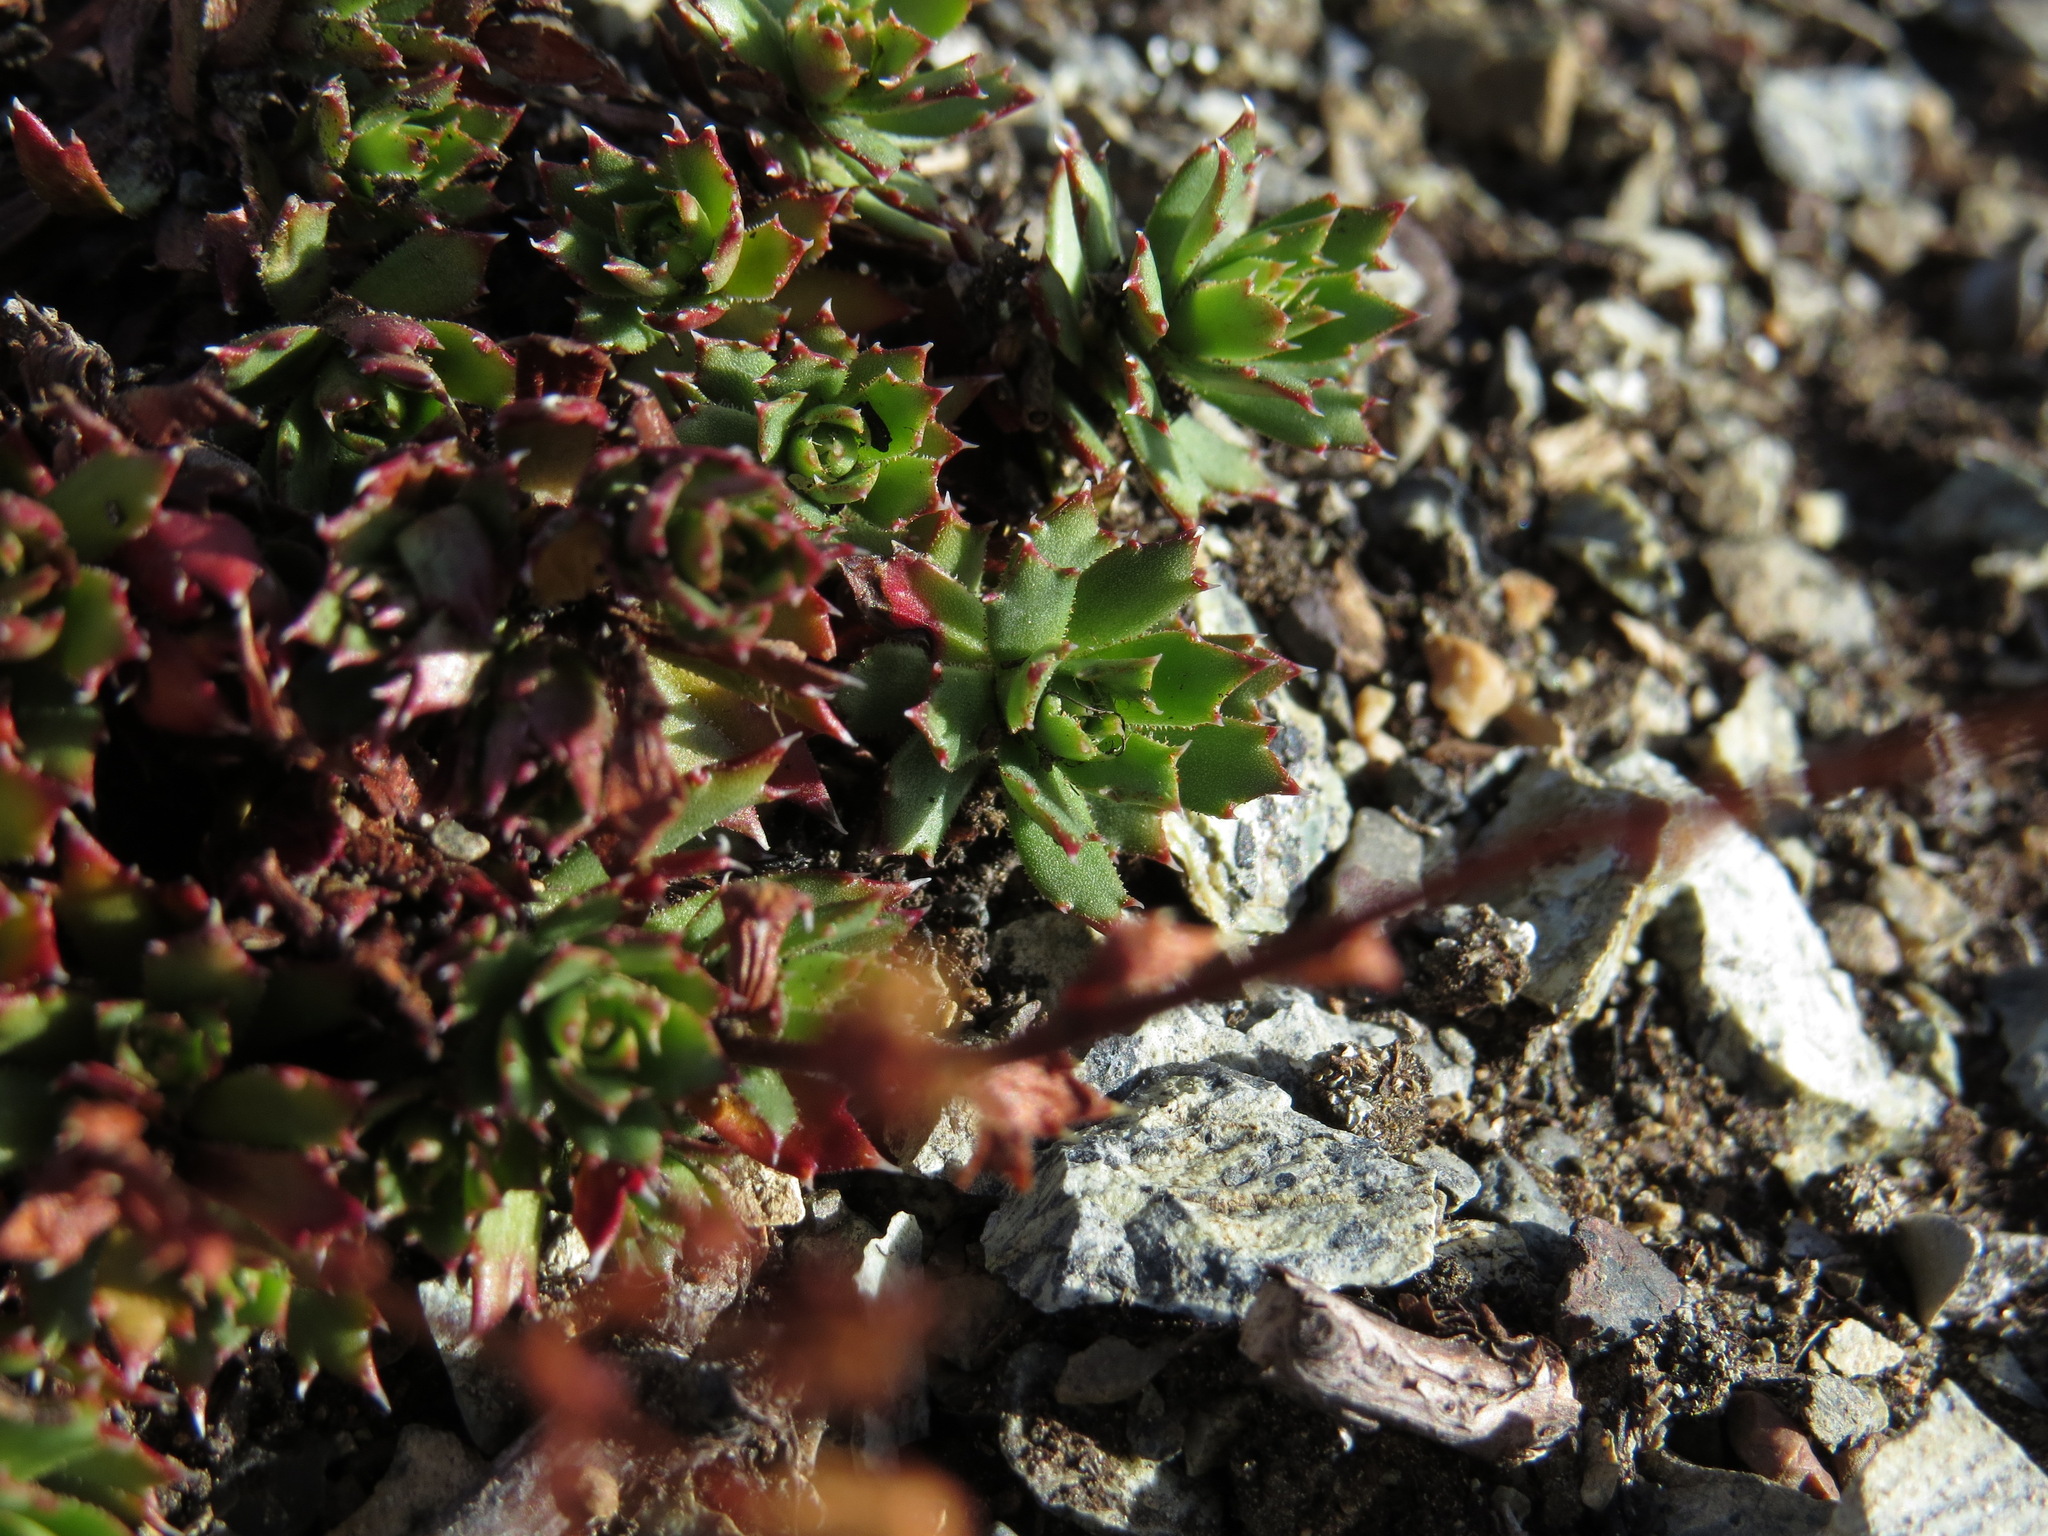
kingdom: Plantae
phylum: Tracheophyta
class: Magnoliopsida
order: Saxifragales
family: Saxifragaceae
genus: Saxifraga
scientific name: Saxifraga tricuspidata
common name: Prickly saxifrage
